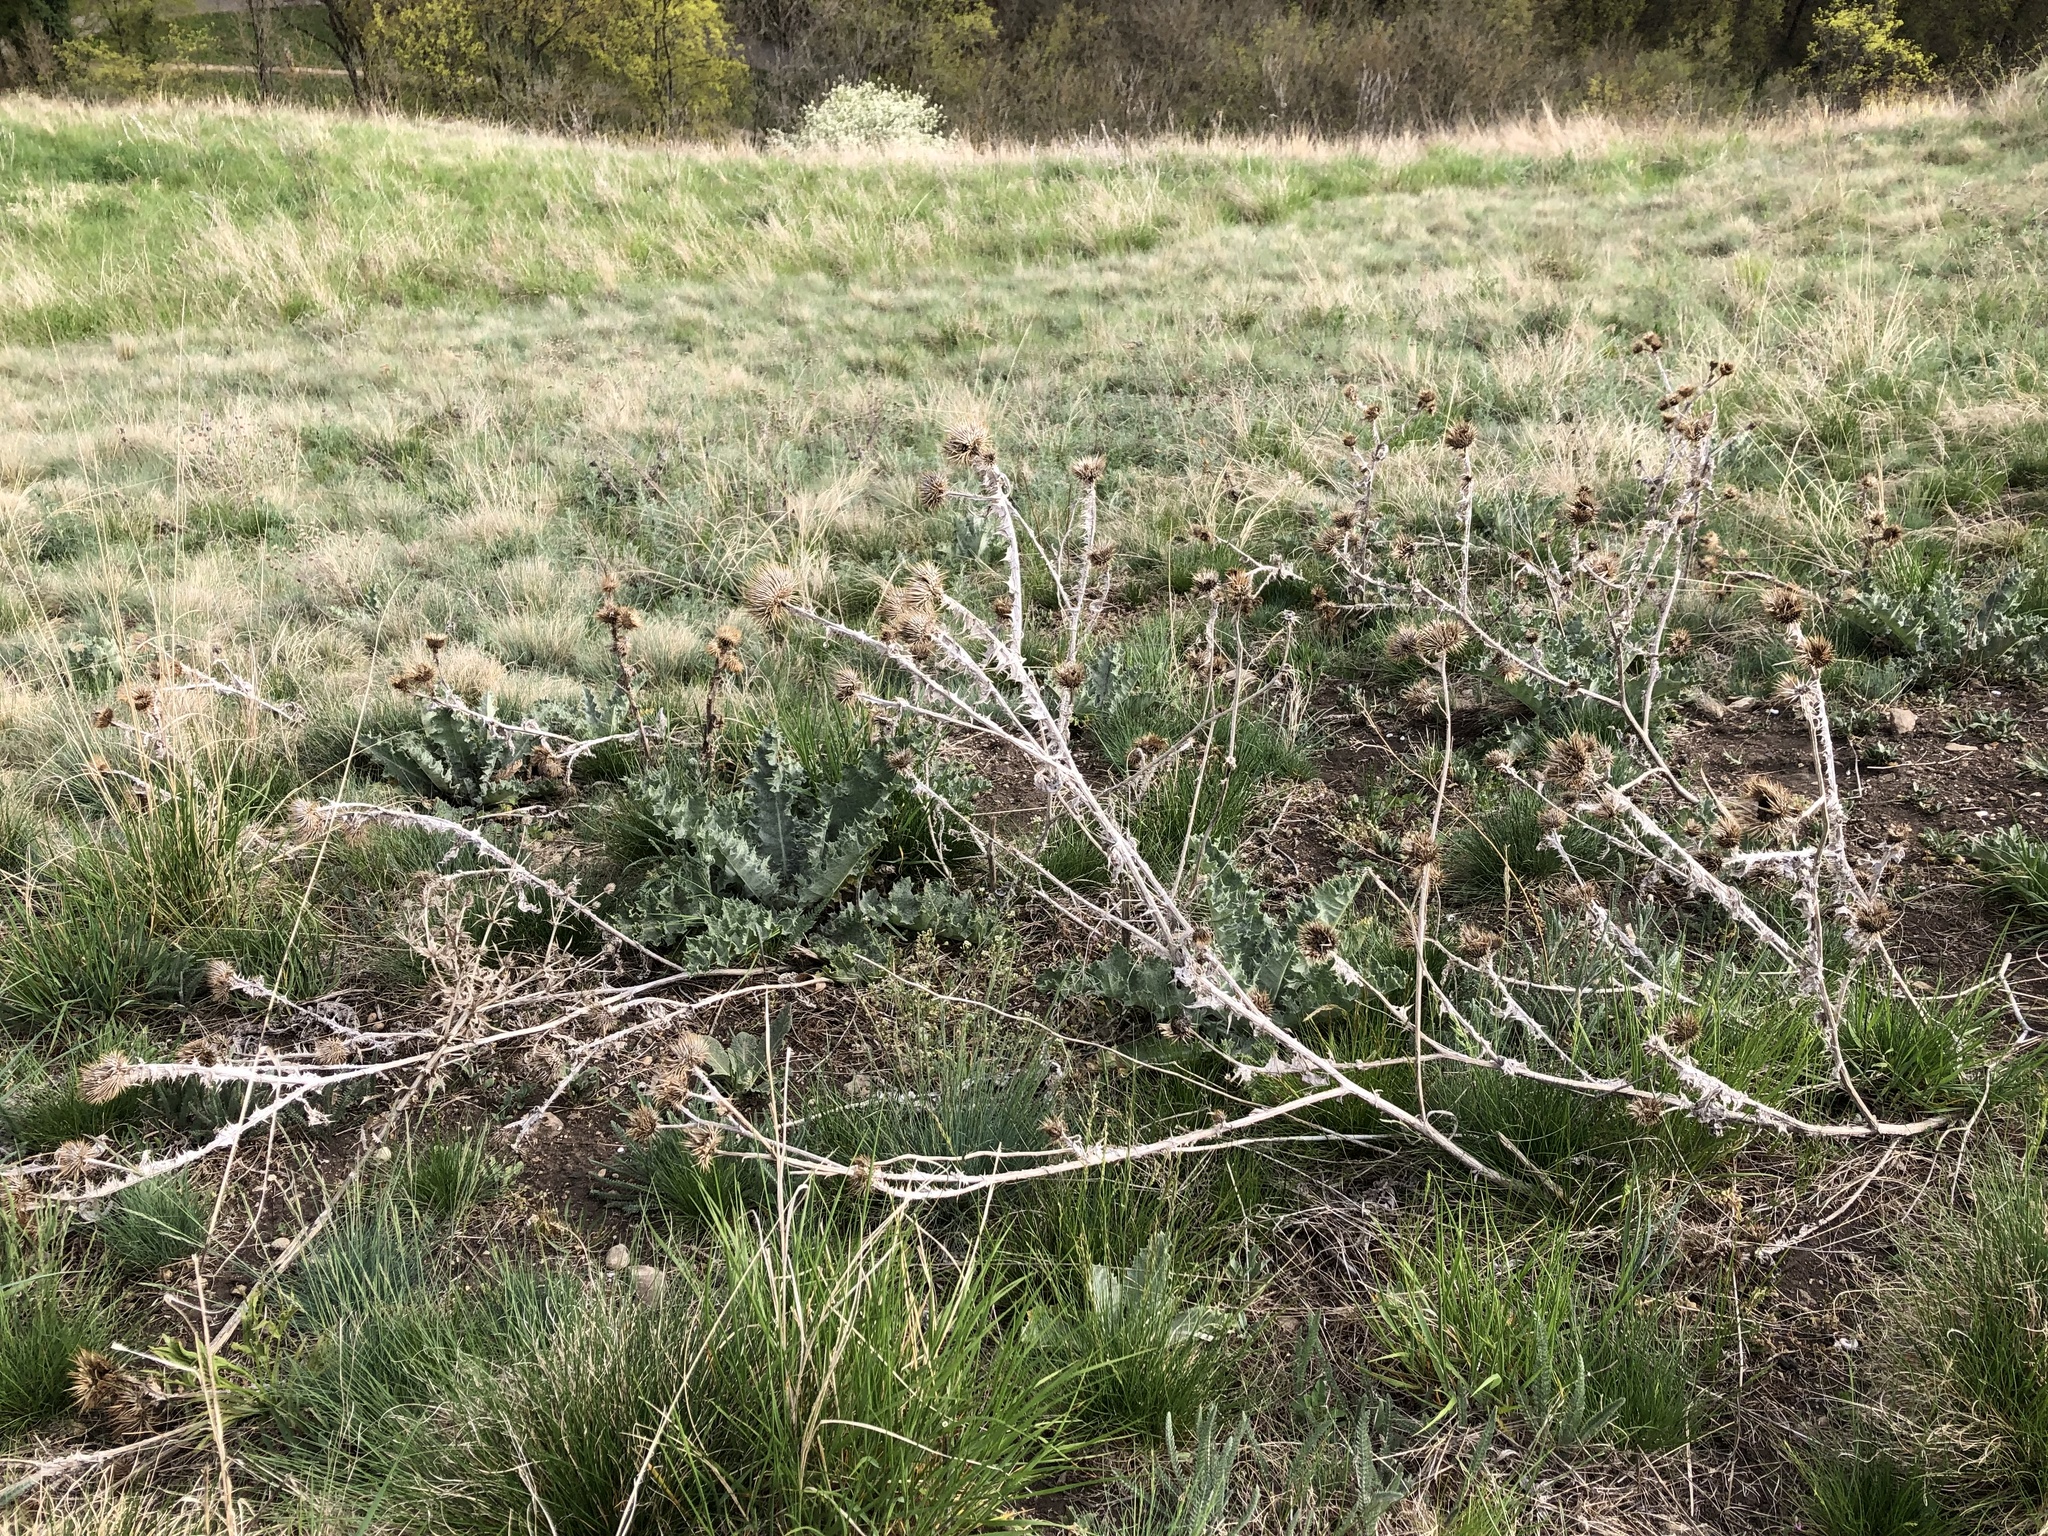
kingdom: Plantae
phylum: Tracheophyta
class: Magnoliopsida
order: Asterales
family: Asteraceae
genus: Onopordum
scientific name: Onopordum acanthium
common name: Scotch thistle
